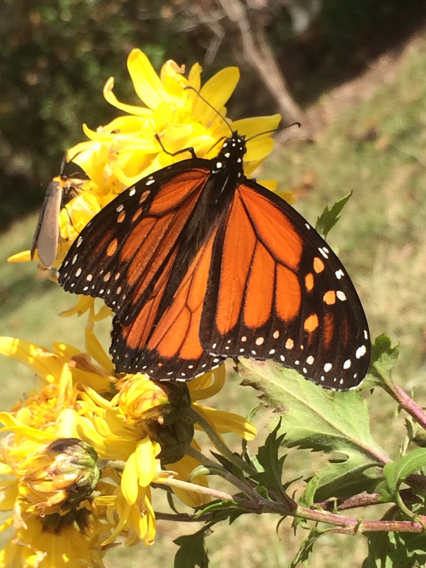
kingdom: Animalia
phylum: Arthropoda
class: Insecta
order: Lepidoptera
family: Nymphalidae
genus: Danaus
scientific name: Danaus plexippus
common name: Monarch
